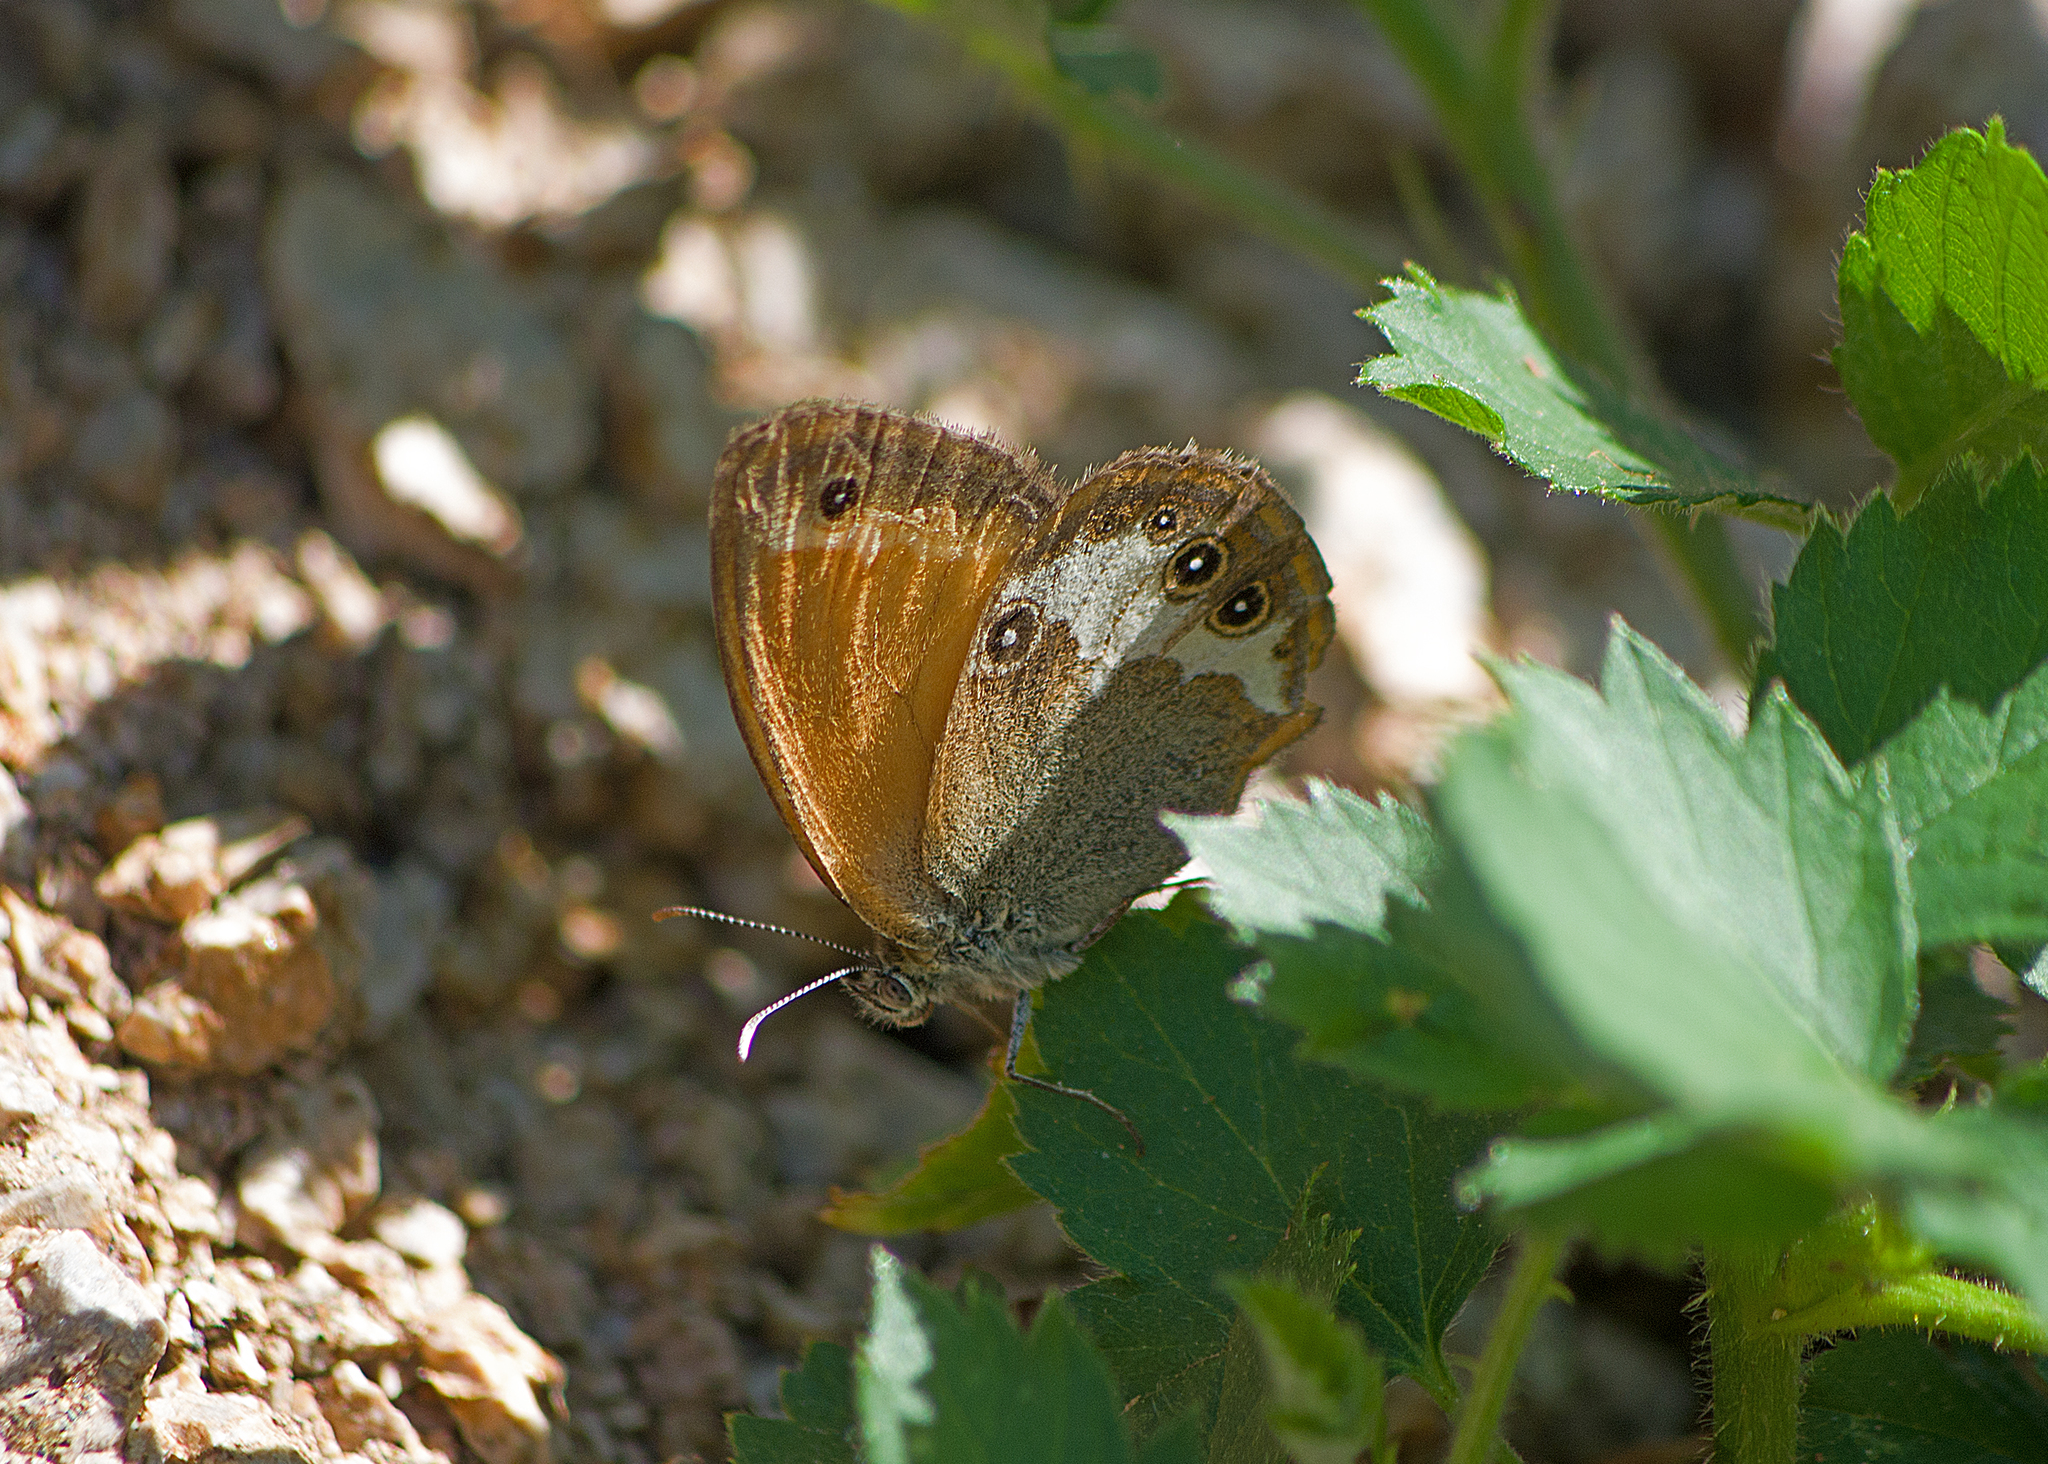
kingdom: Animalia
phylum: Arthropoda
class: Insecta
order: Lepidoptera
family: Nymphalidae
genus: Coenonympha
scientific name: Coenonympha arcania
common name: Pearly heath
